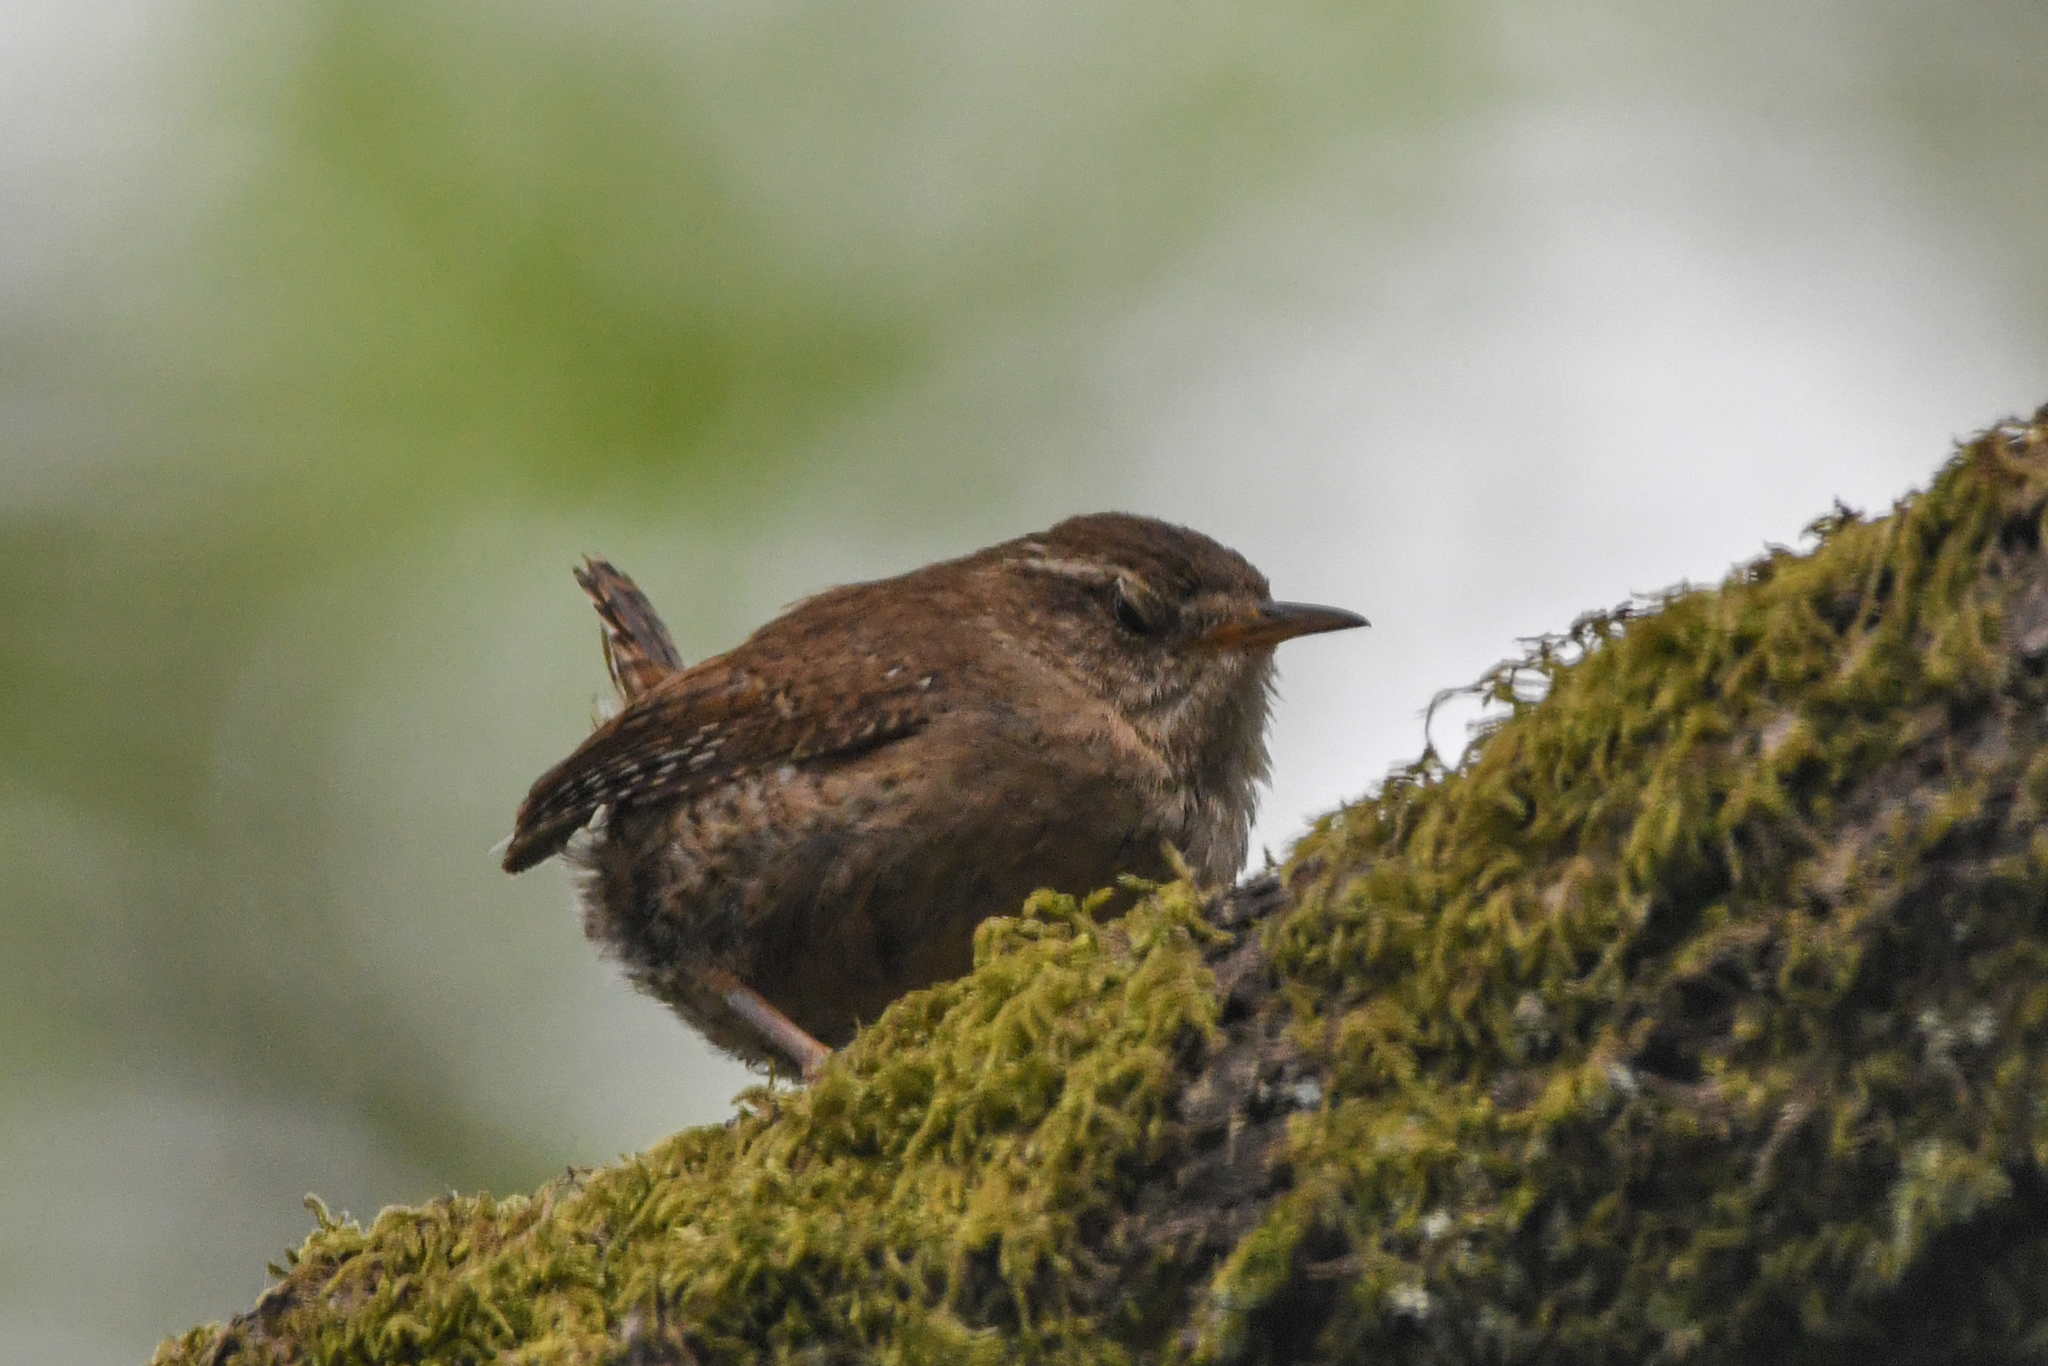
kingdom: Animalia
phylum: Chordata
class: Aves
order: Passeriformes
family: Troglodytidae
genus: Troglodytes
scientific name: Troglodytes troglodytes
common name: Eurasian wren
